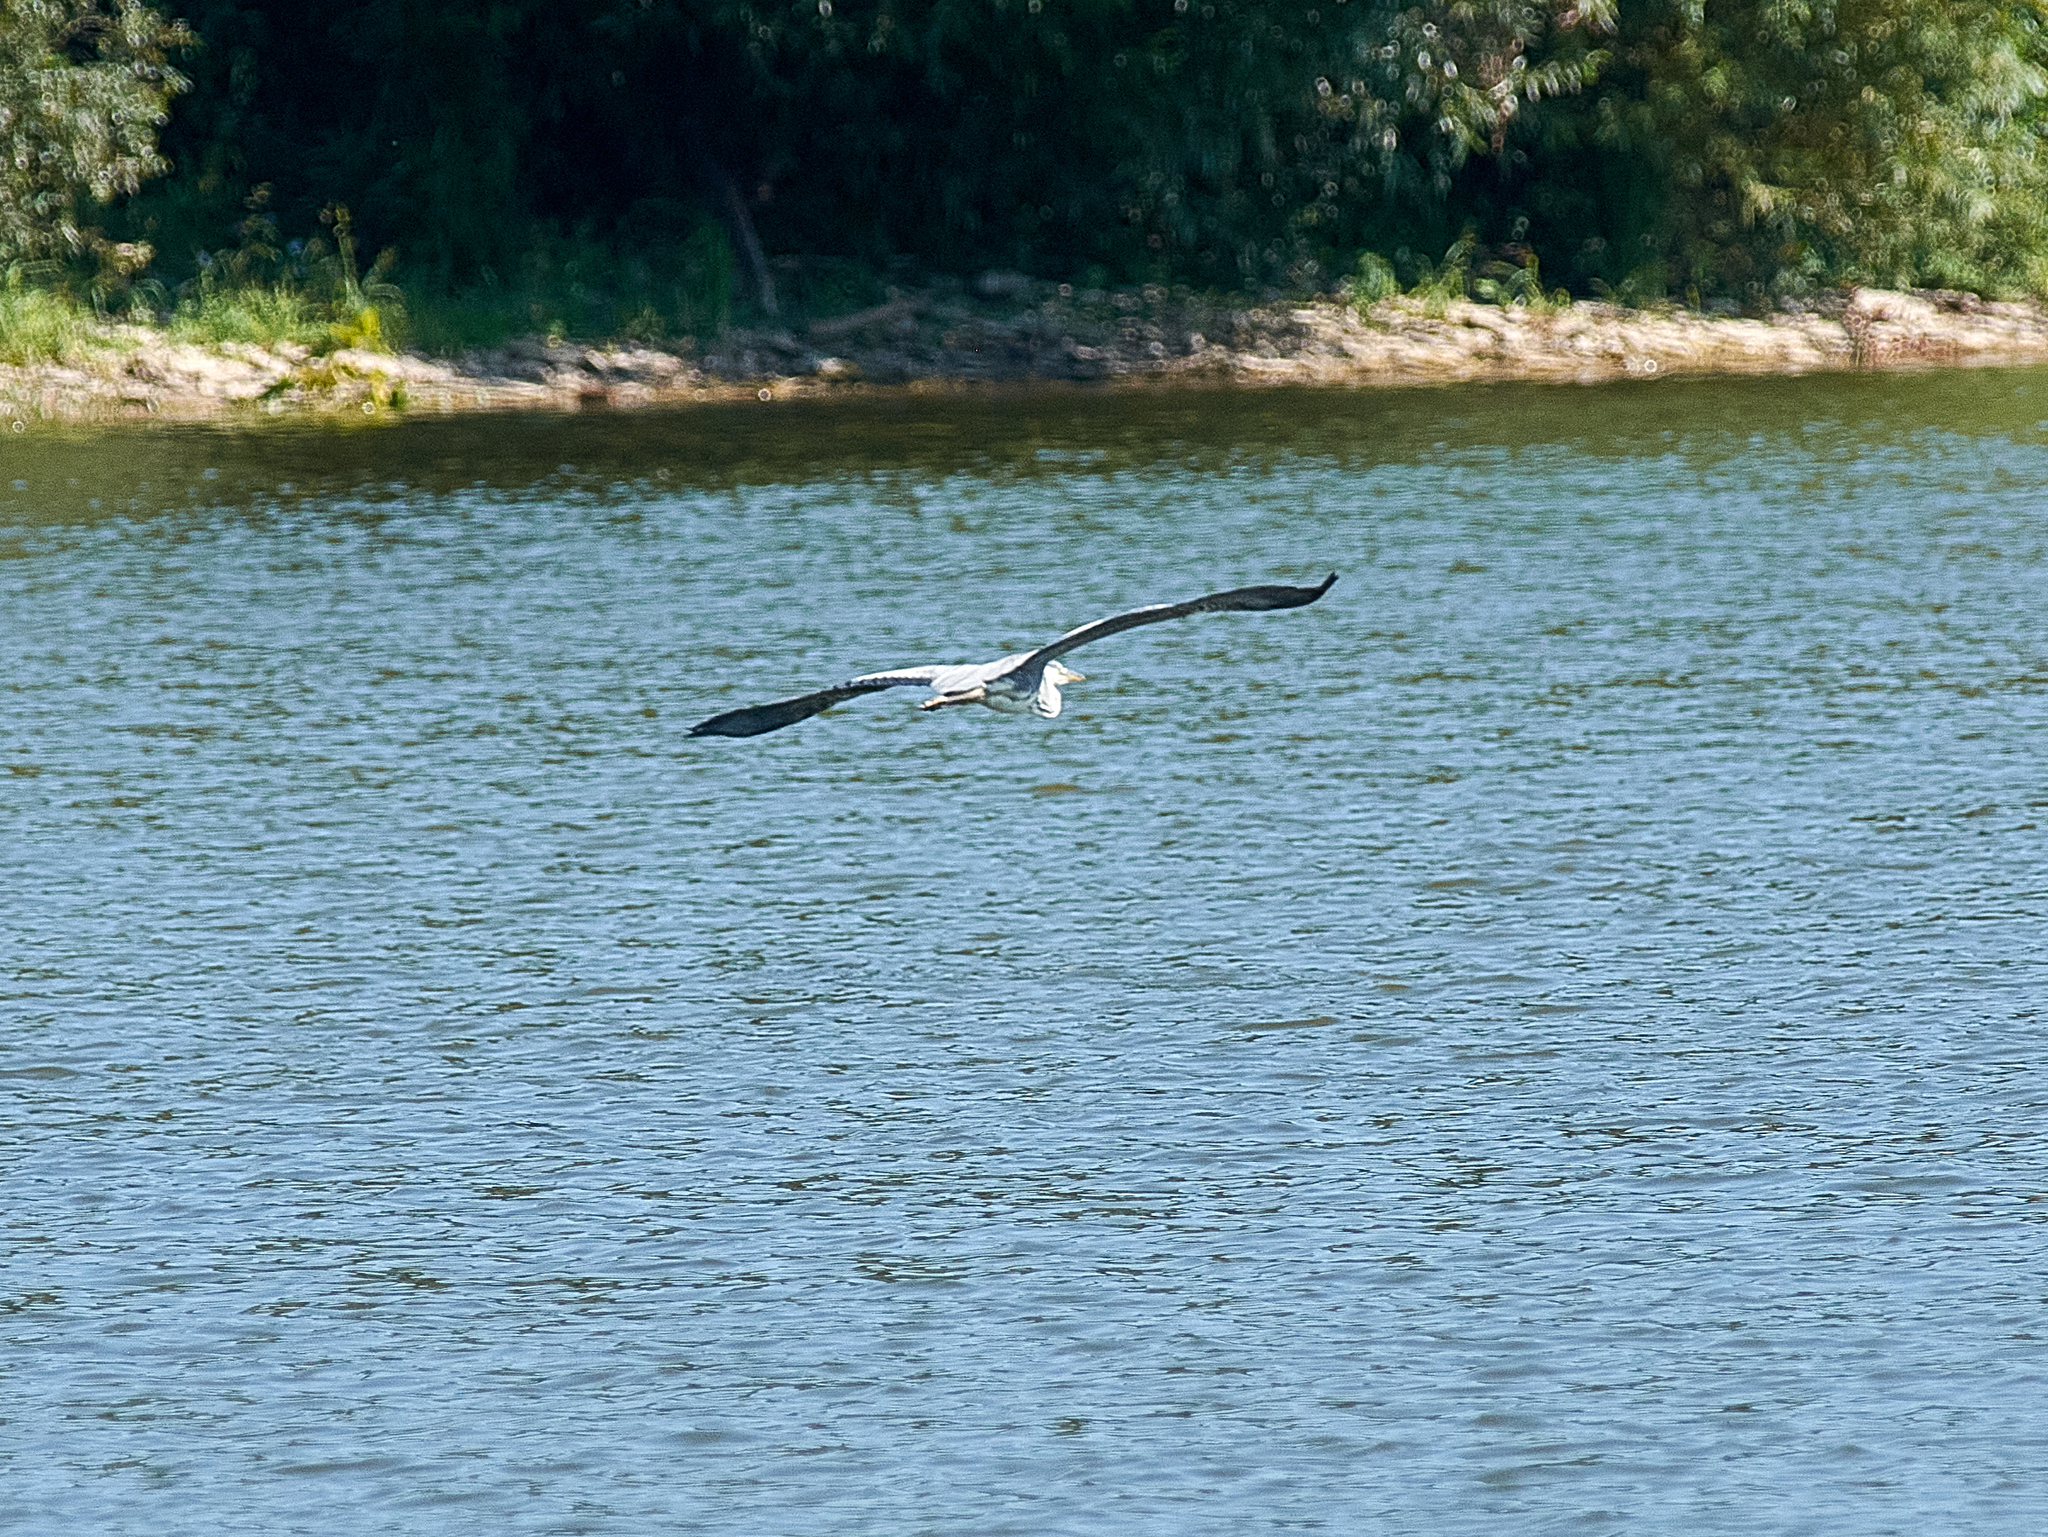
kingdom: Animalia
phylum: Chordata
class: Aves
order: Pelecaniformes
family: Ardeidae
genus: Ardea
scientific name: Ardea cinerea
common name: Grey heron
